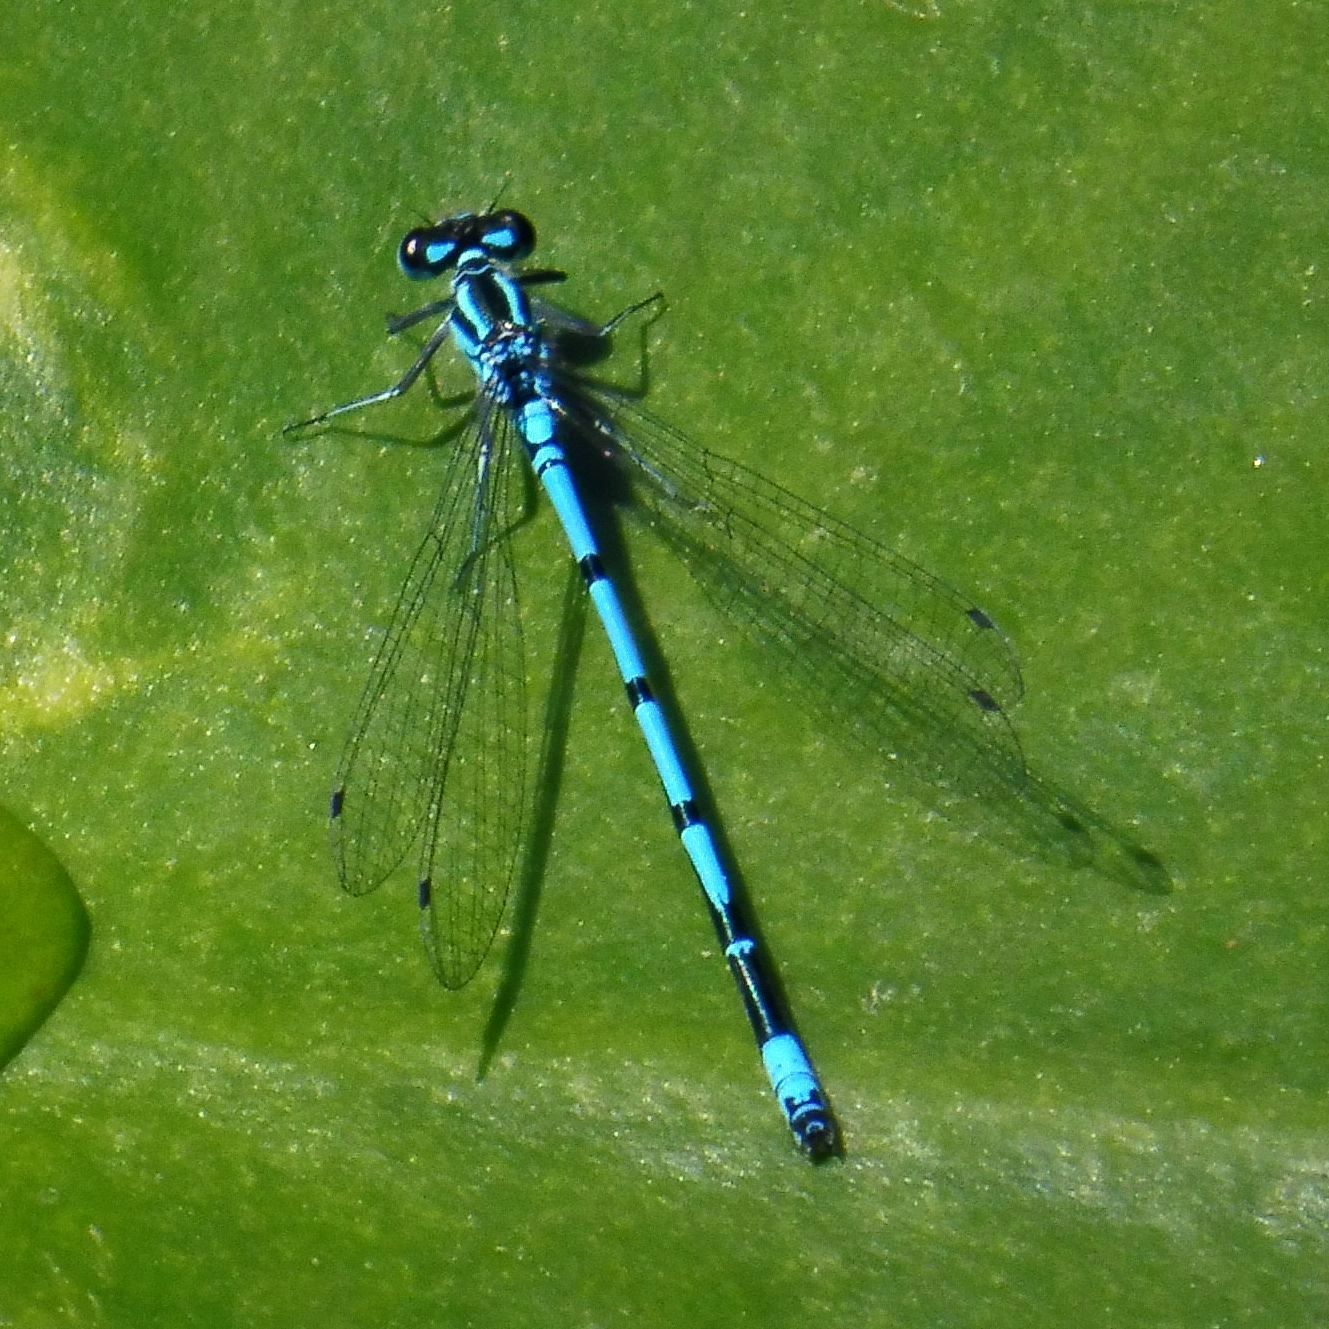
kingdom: Animalia
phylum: Arthropoda
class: Insecta
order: Odonata
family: Coenagrionidae
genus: Coenagrion
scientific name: Coenagrion puella
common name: Azure damselfly
